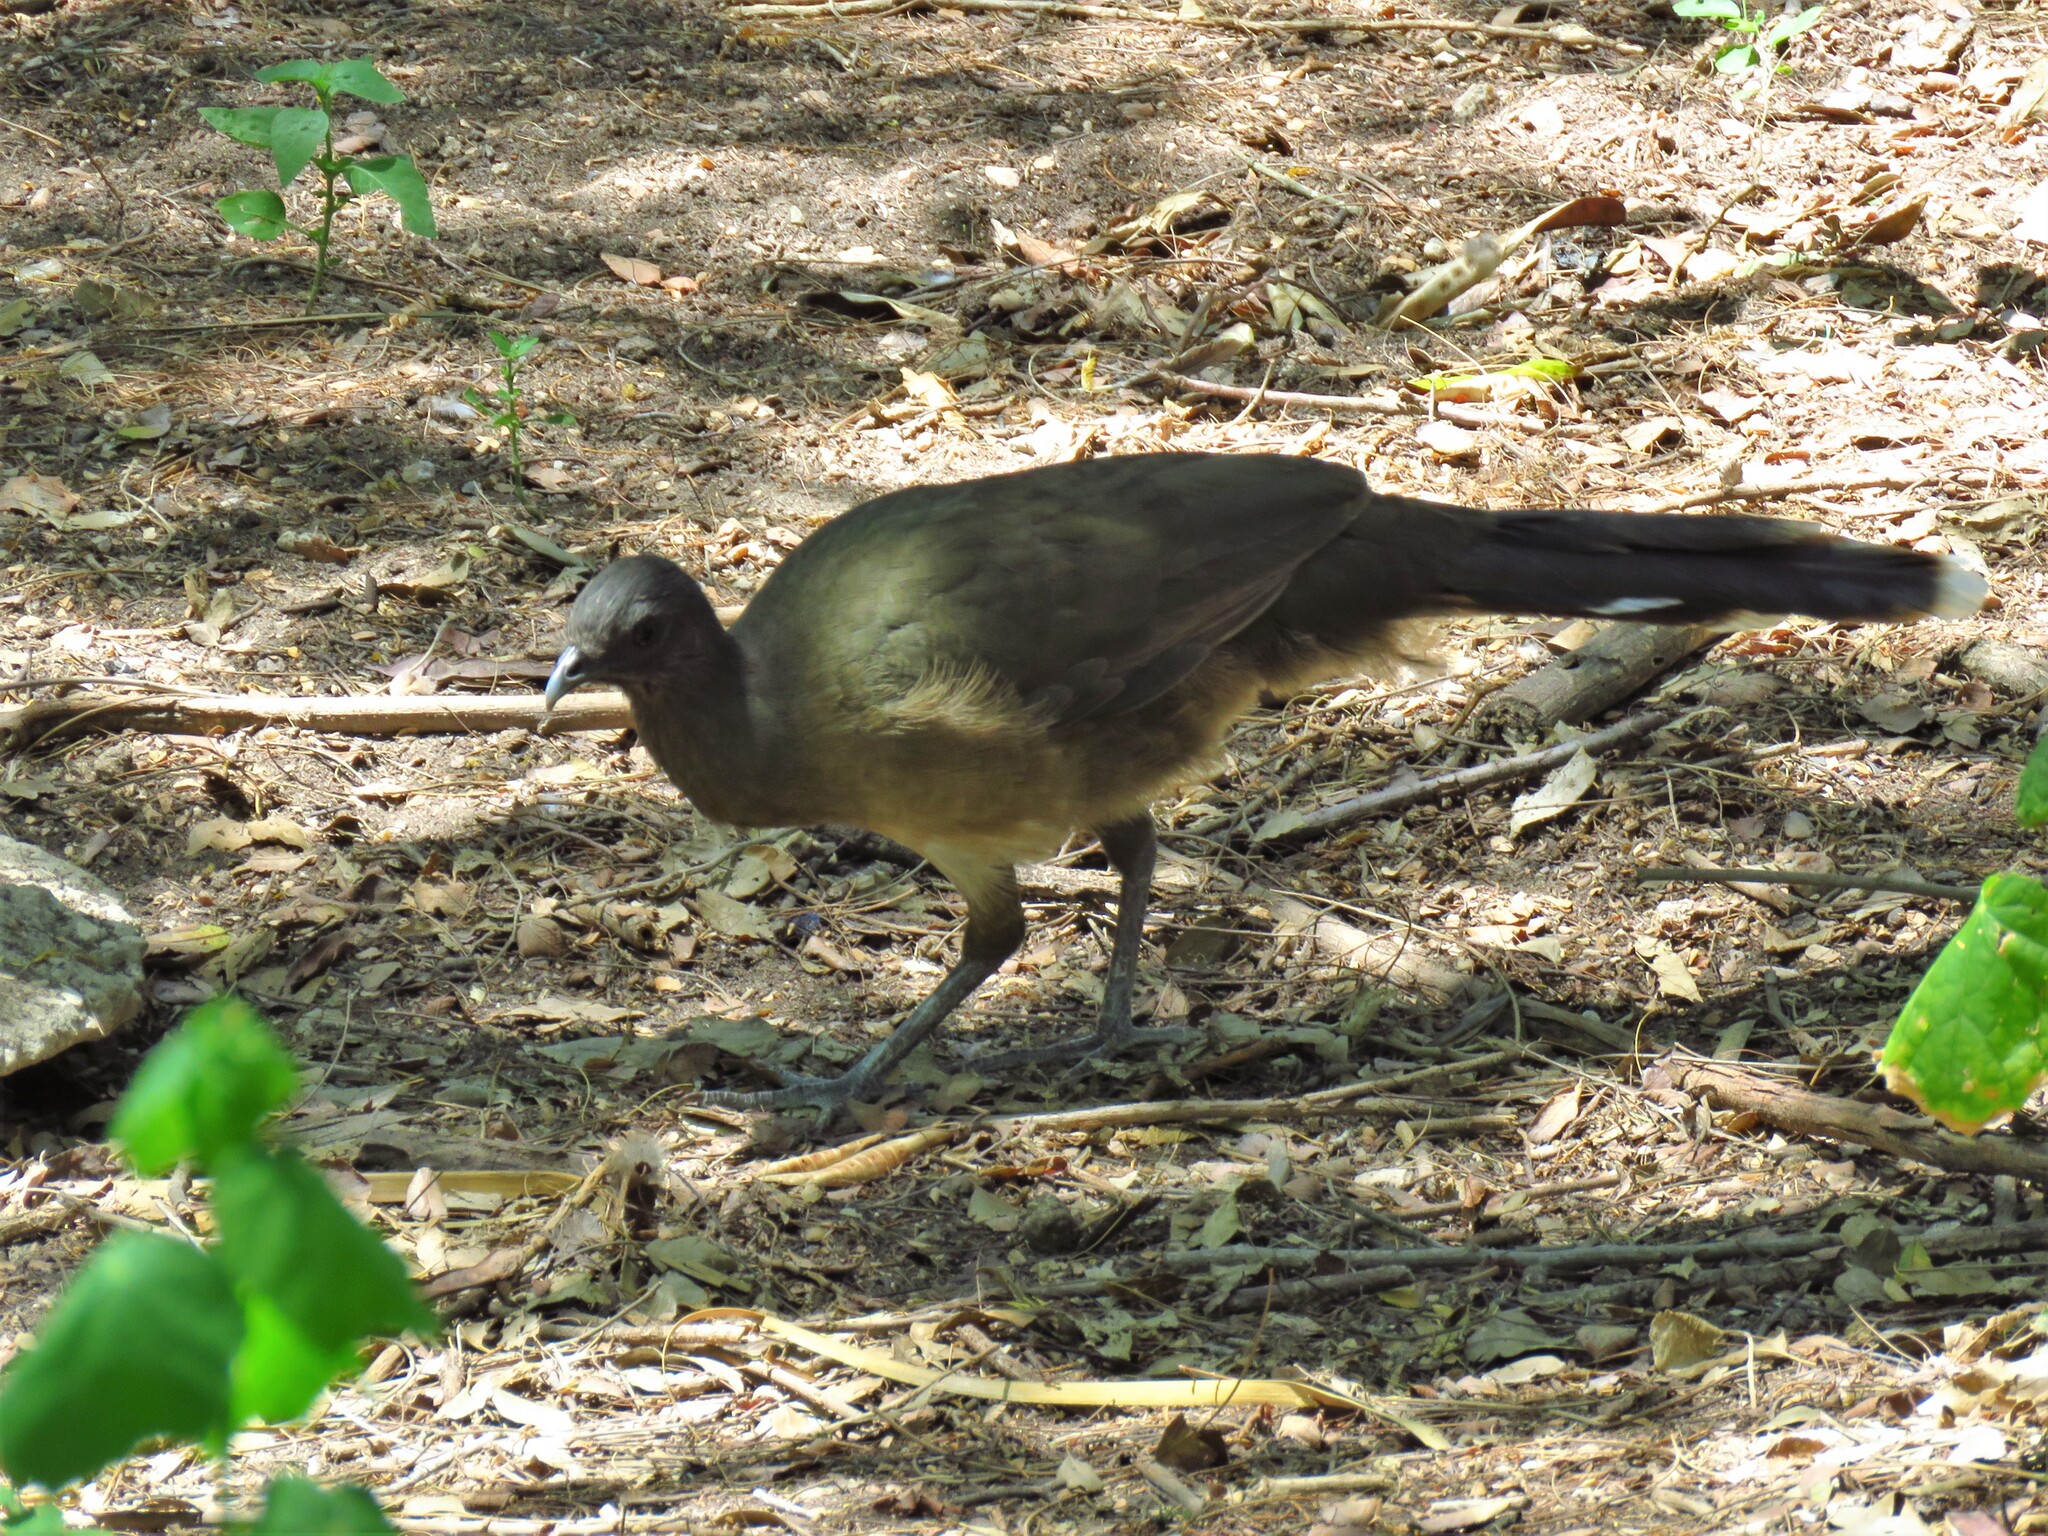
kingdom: Animalia
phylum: Chordata
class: Aves
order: Galliformes
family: Cracidae
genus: Ortalis
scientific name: Ortalis vetula
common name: Plain chachalaca
